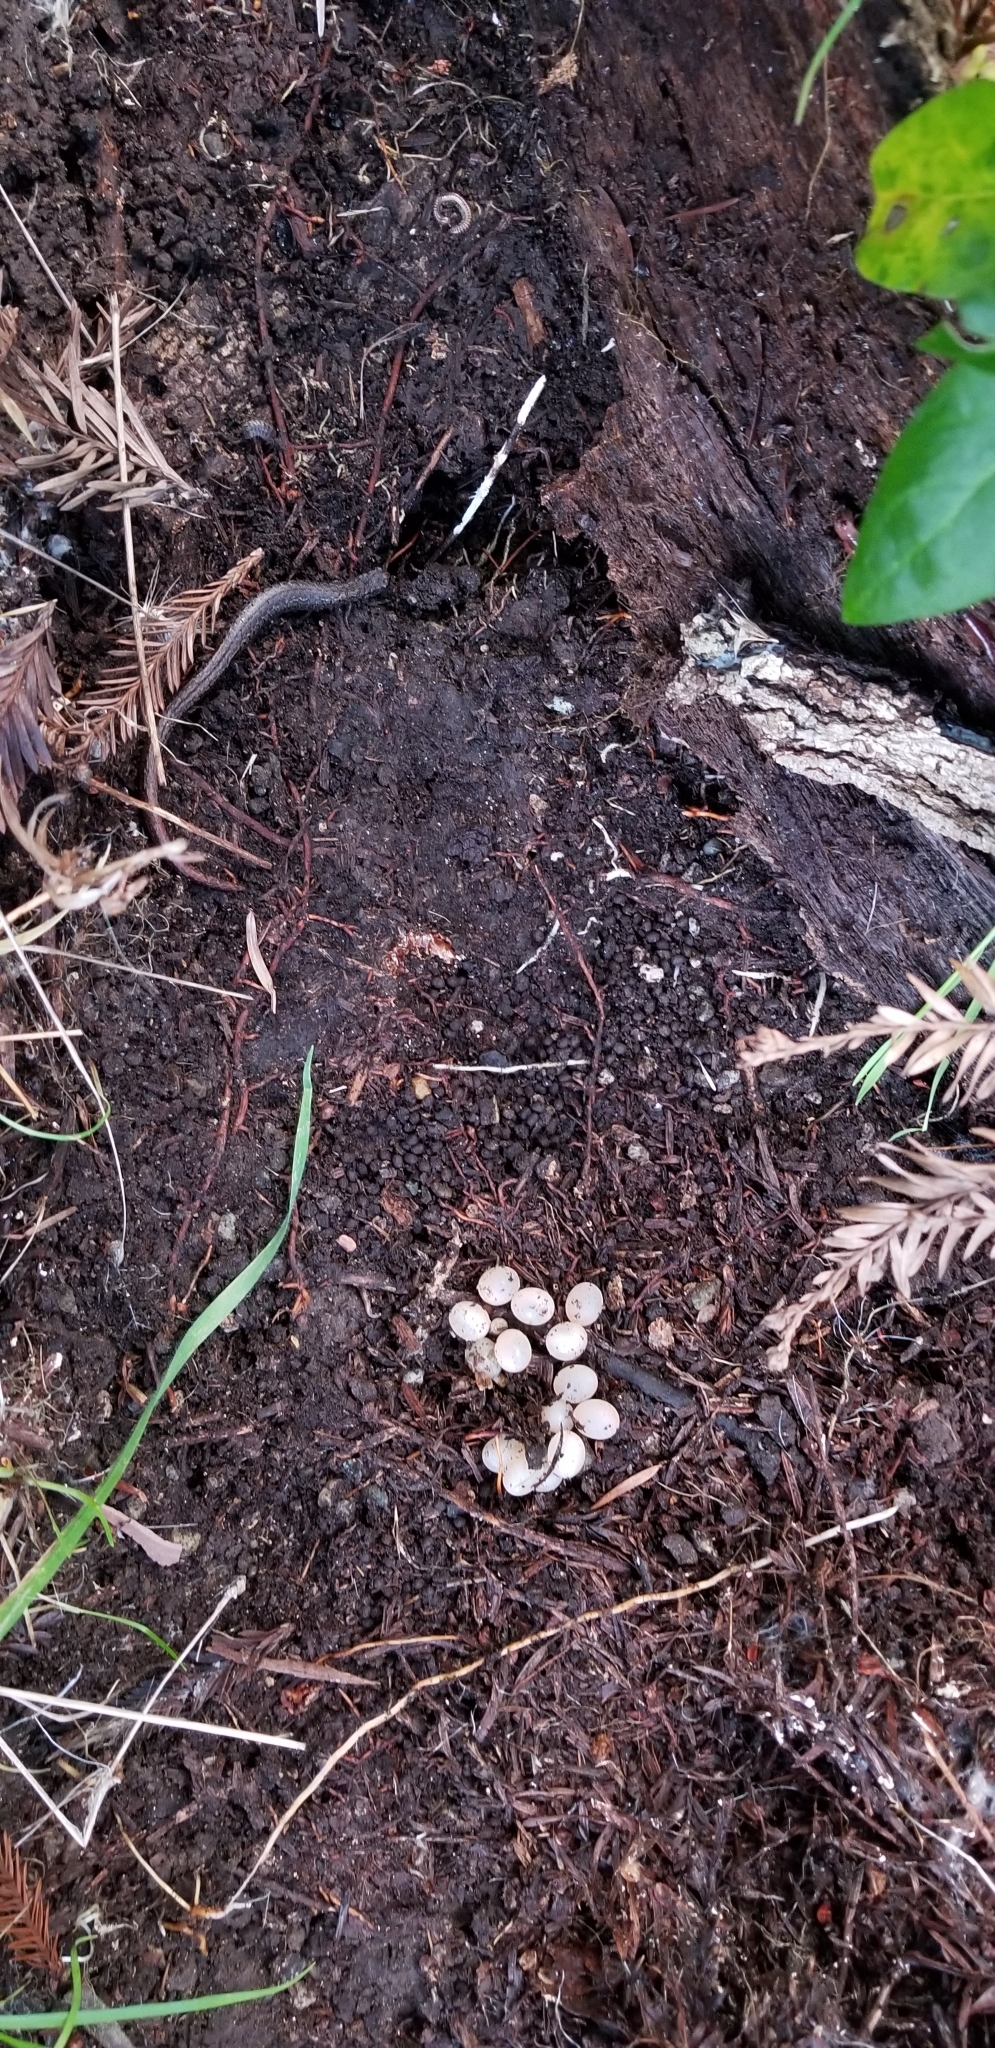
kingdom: Animalia
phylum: Mollusca
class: Gastropoda
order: Stylommatophora
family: Ariolimacidae
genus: Ariolimax
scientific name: Ariolimax californicus
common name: California banana slug
